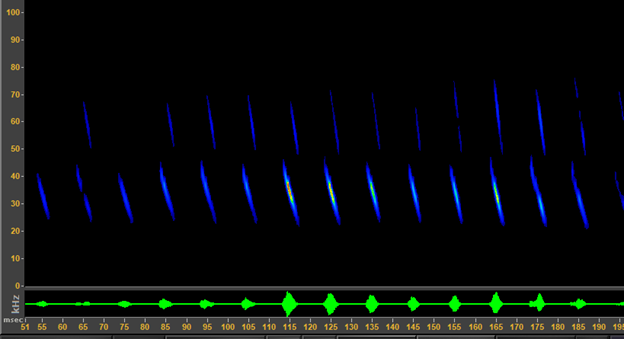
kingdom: Animalia
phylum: Chordata
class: Mammalia
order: Chiroptera
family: Vespertilionidae
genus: Corynorhinus
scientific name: Corynorhinus townsendii
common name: Townsend's big-eared bat
